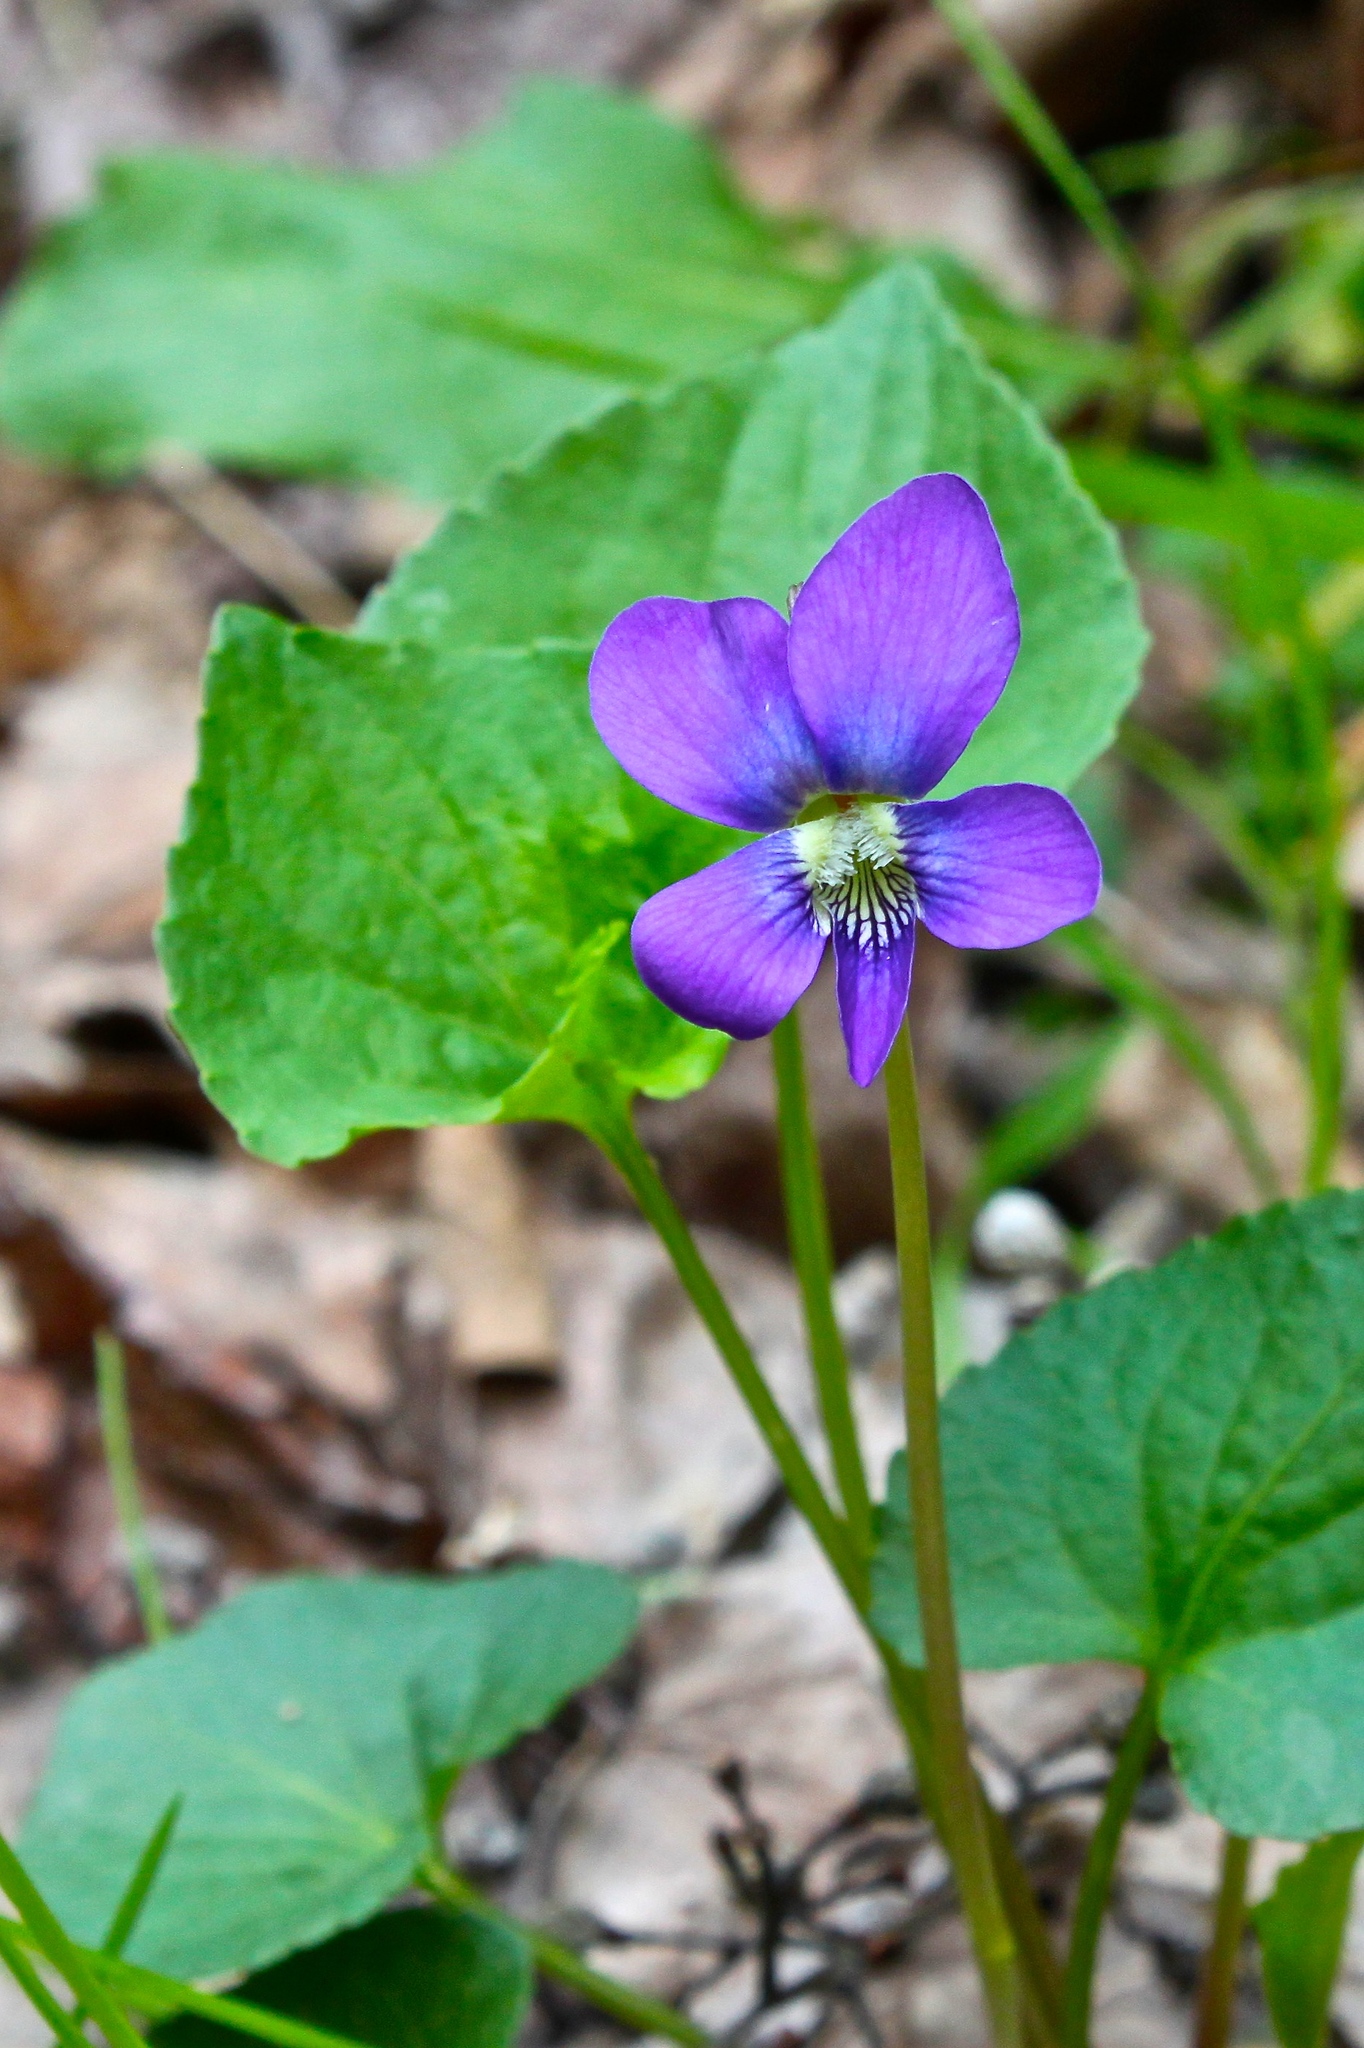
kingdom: Plantae
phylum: Tracheophyta
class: Magnoliopsida
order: Malpighiales
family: Violaceae
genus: Viola
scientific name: Viola sororia
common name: Dooryard violet
